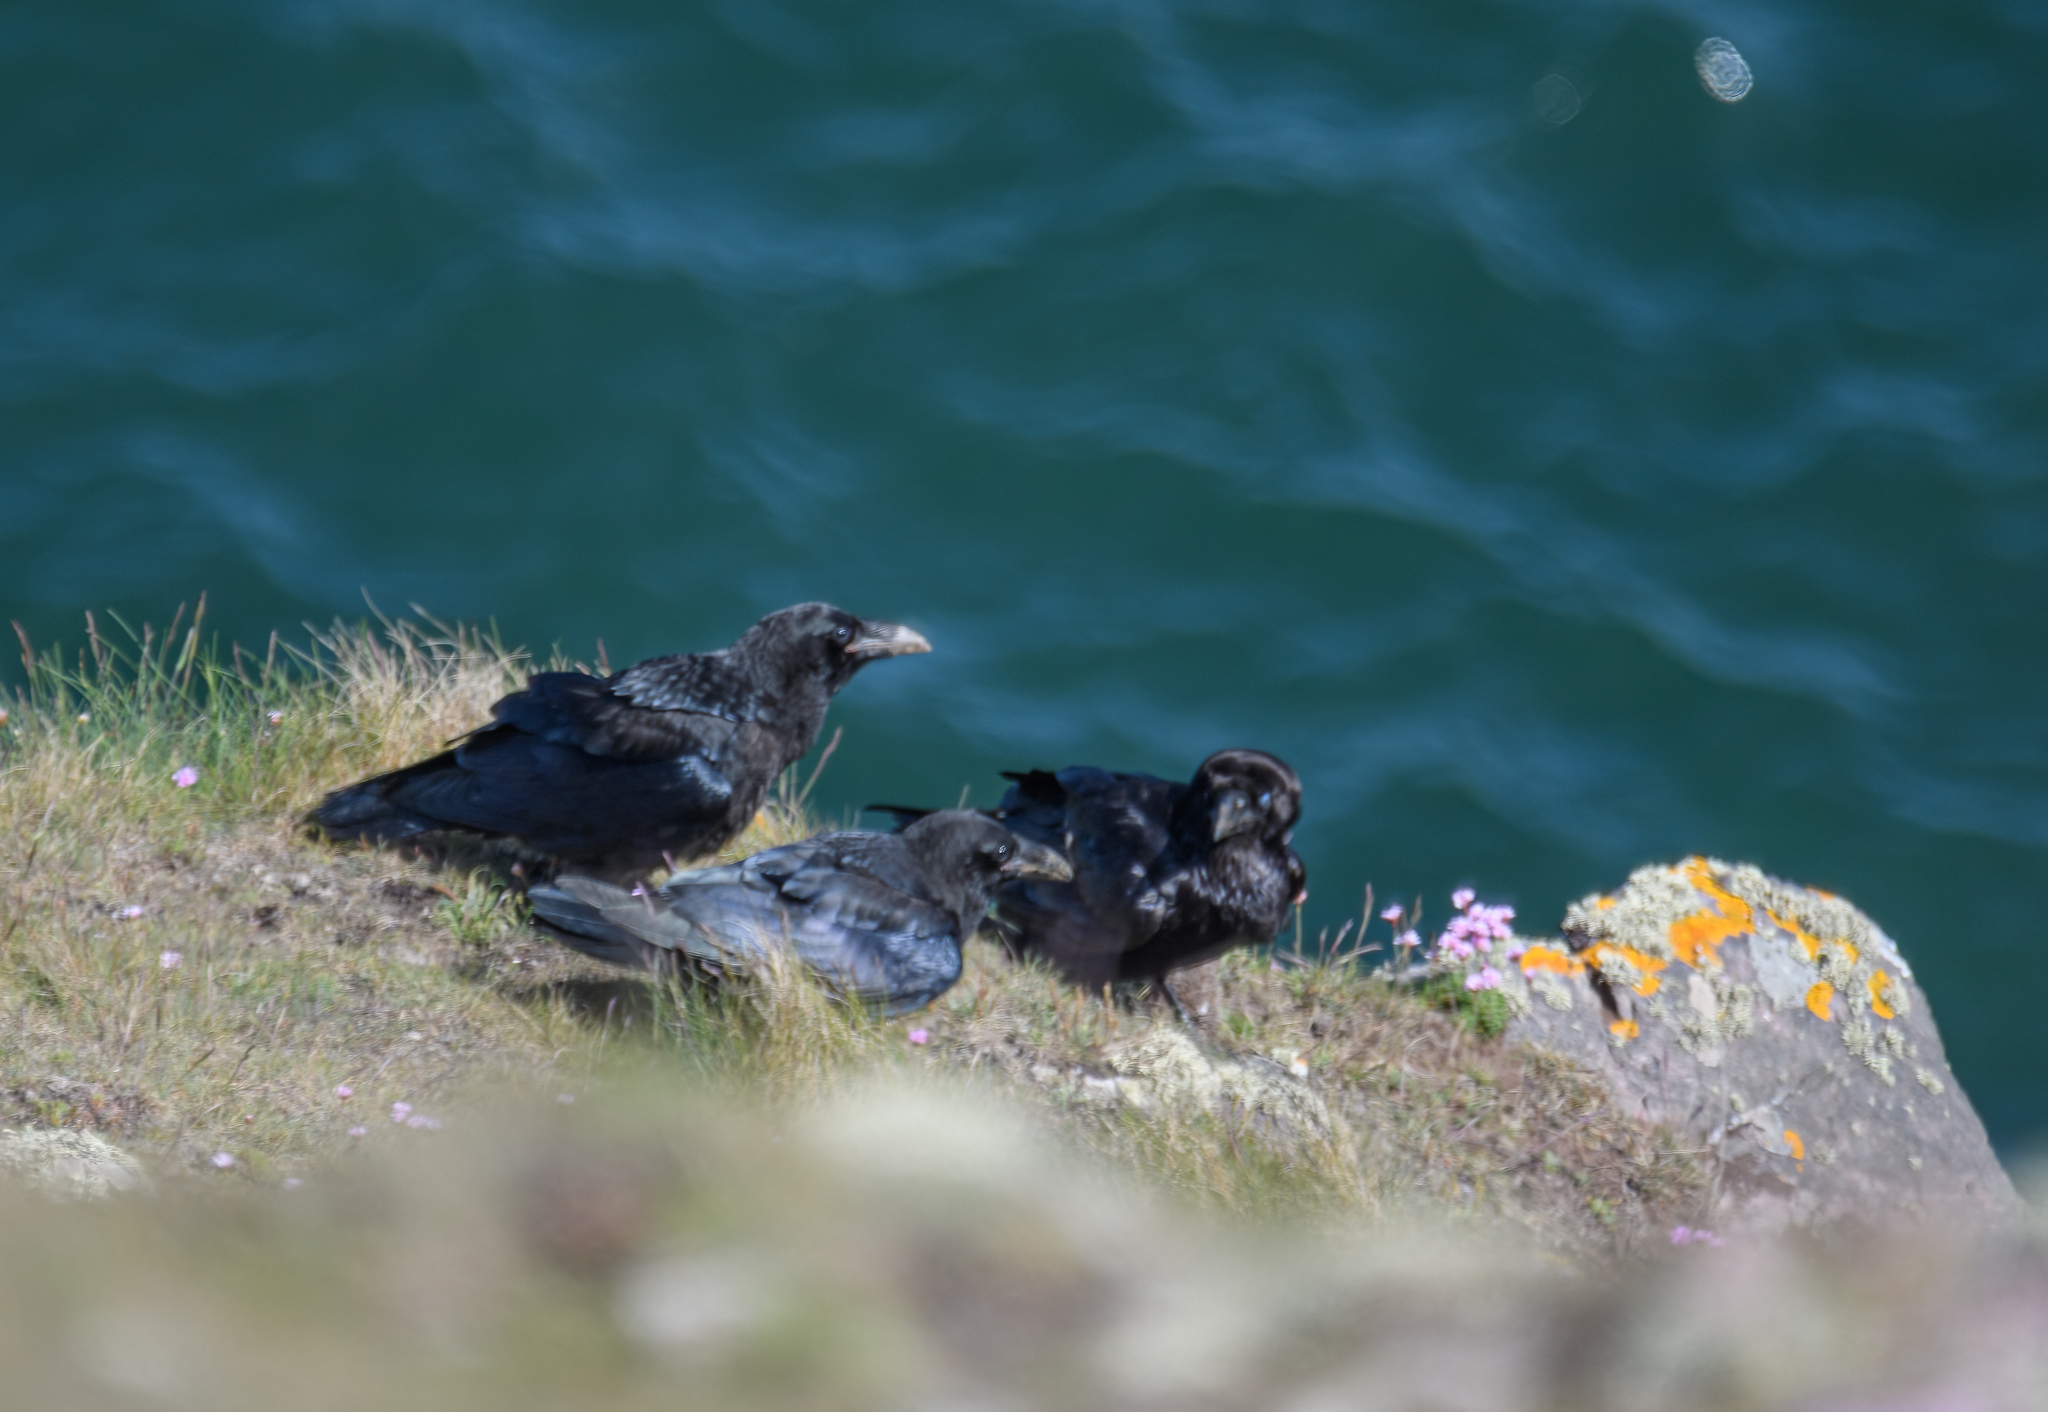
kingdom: Animalia
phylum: Chordata
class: Aves
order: Passeriformes
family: Corvidae
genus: Corvus
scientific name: Corvus corax
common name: Common raven
